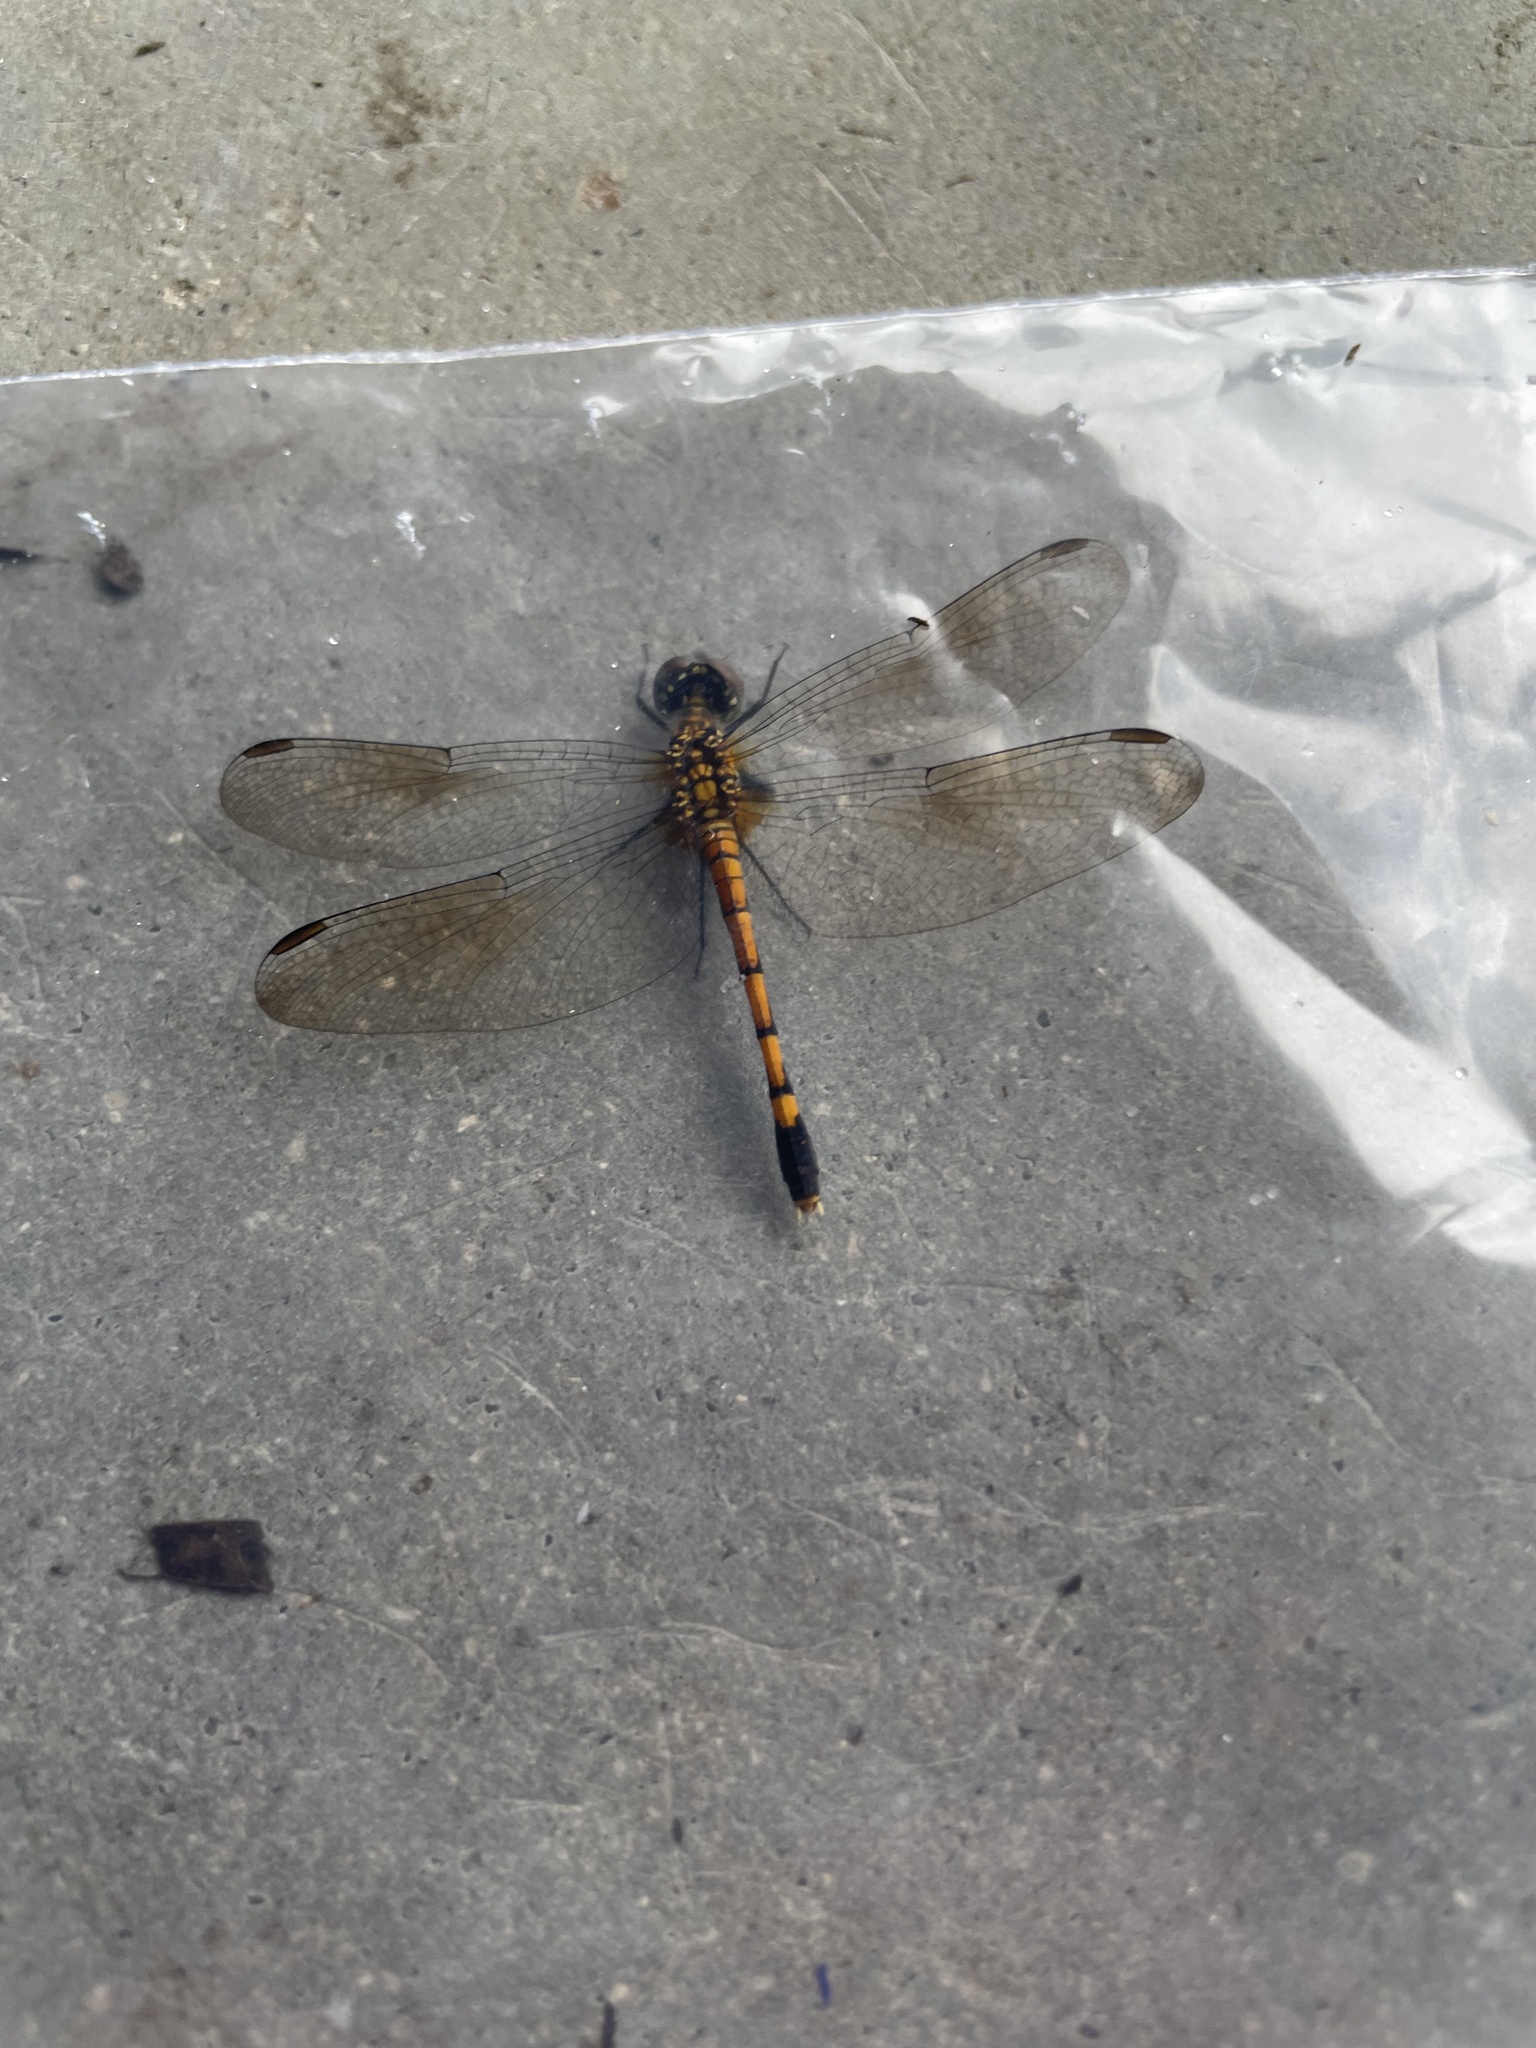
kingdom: Animalia
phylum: Arthropoda
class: Insecta
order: Odonata
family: Libellulidae
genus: Erythrodiplax
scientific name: Erythrodiplax berenice
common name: Seaside dragonlet
